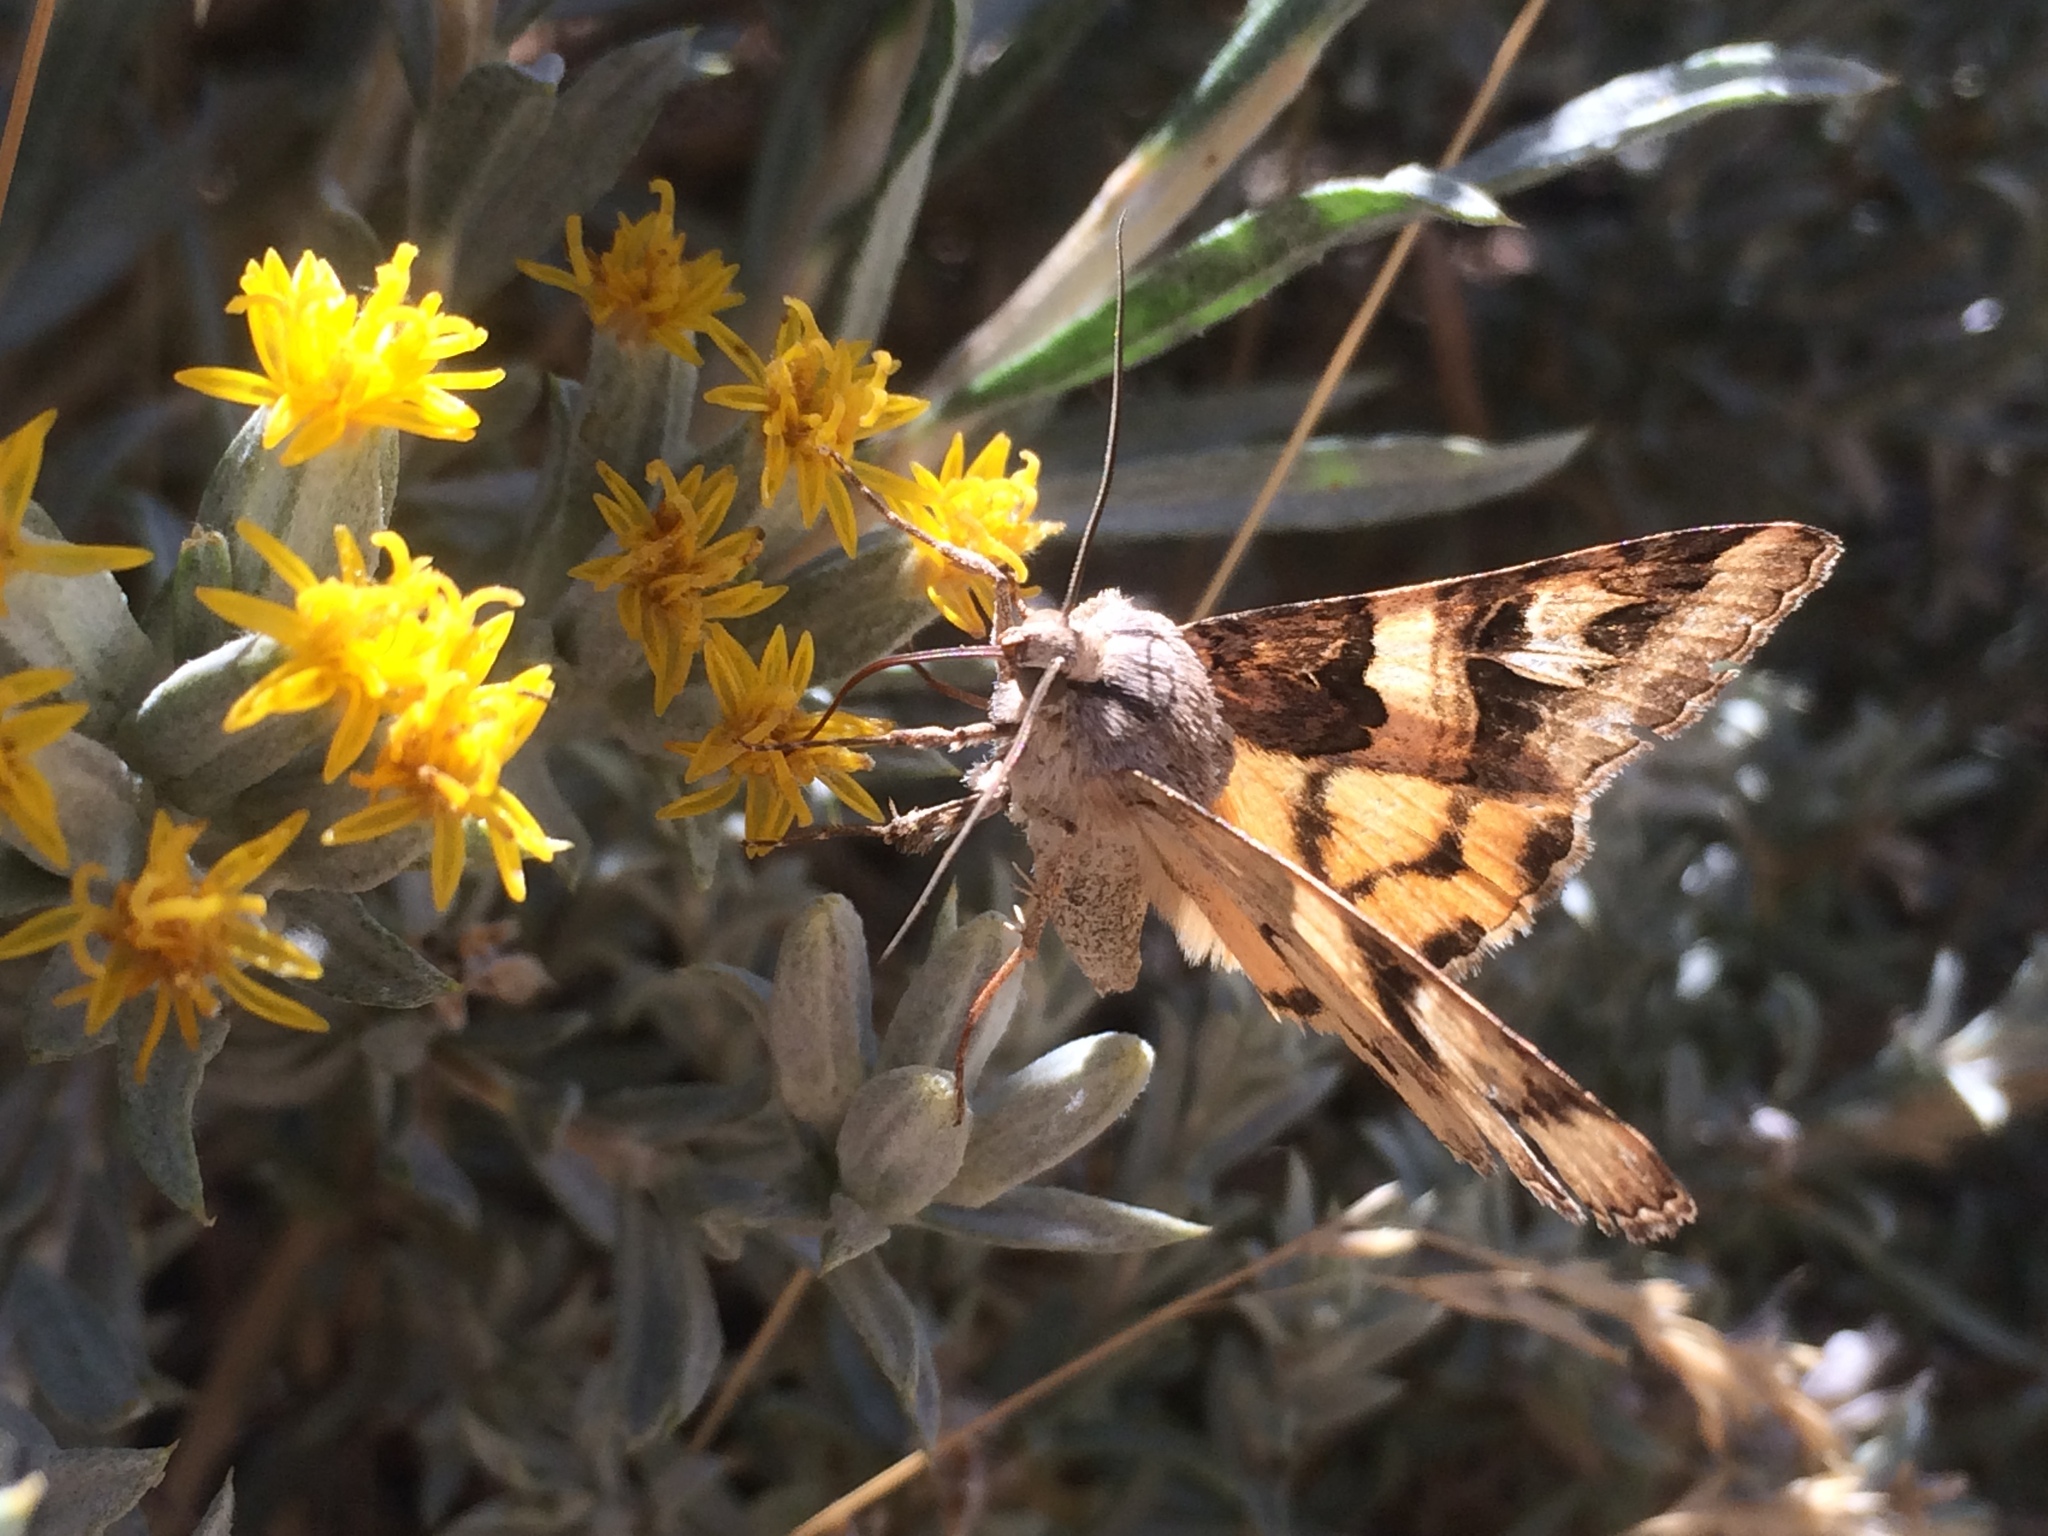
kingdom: Animalia
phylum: Arthropoda
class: Insecta
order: Lepidoptera
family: Erebidae
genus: Drasteria
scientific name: Drasteria divergens
